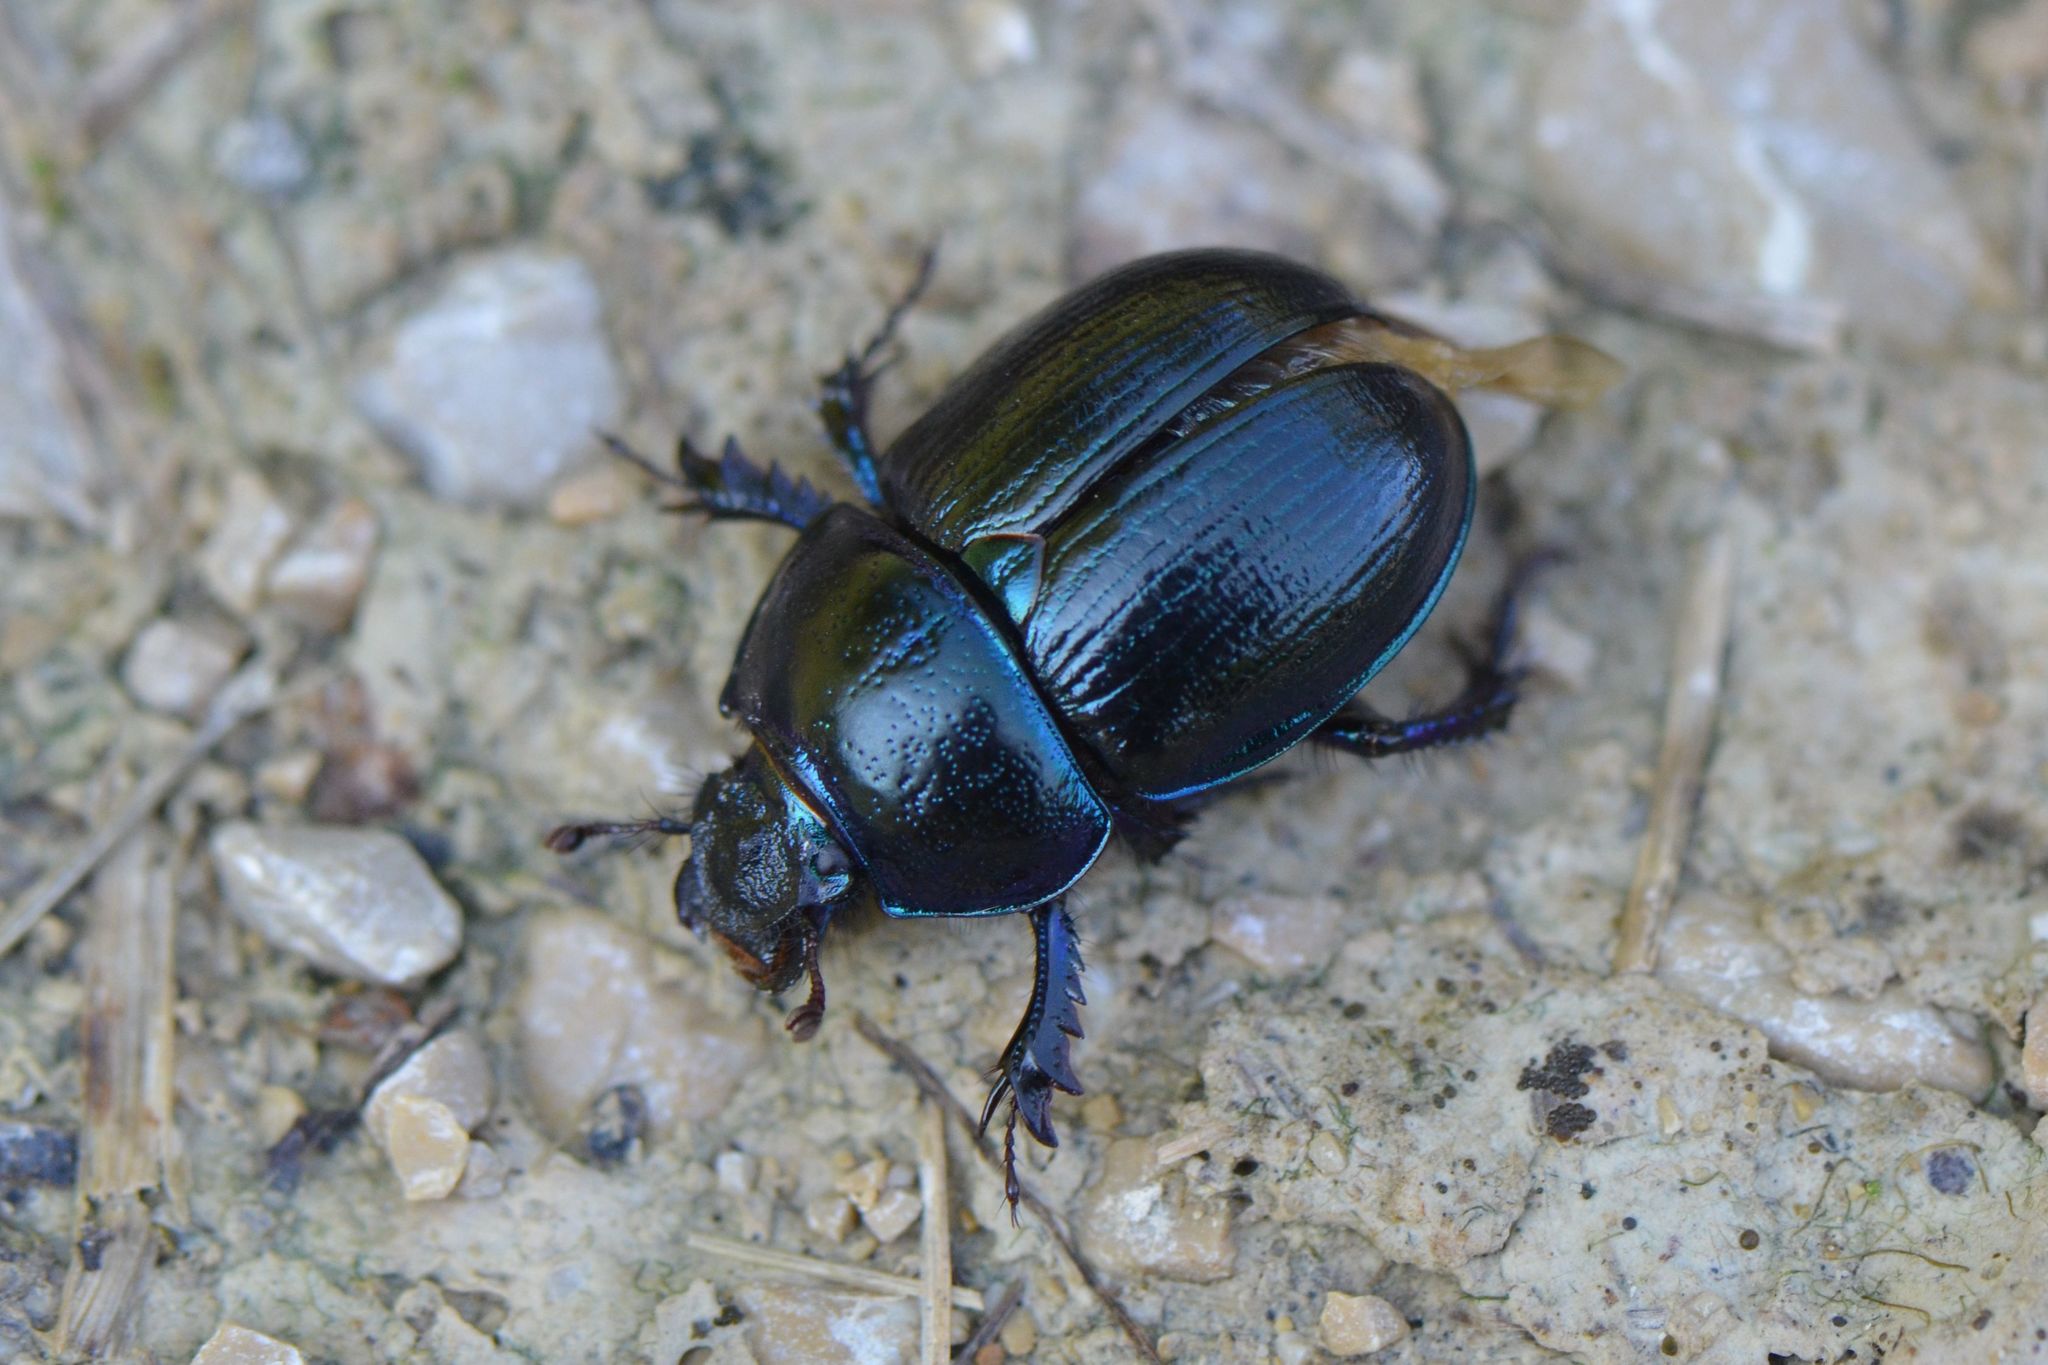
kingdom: Animalia
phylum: Arthropoda
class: Insecta
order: Coleoptera
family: Geotrupidae
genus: Anoplotrupes
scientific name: Anoplotrupes stercorosus
